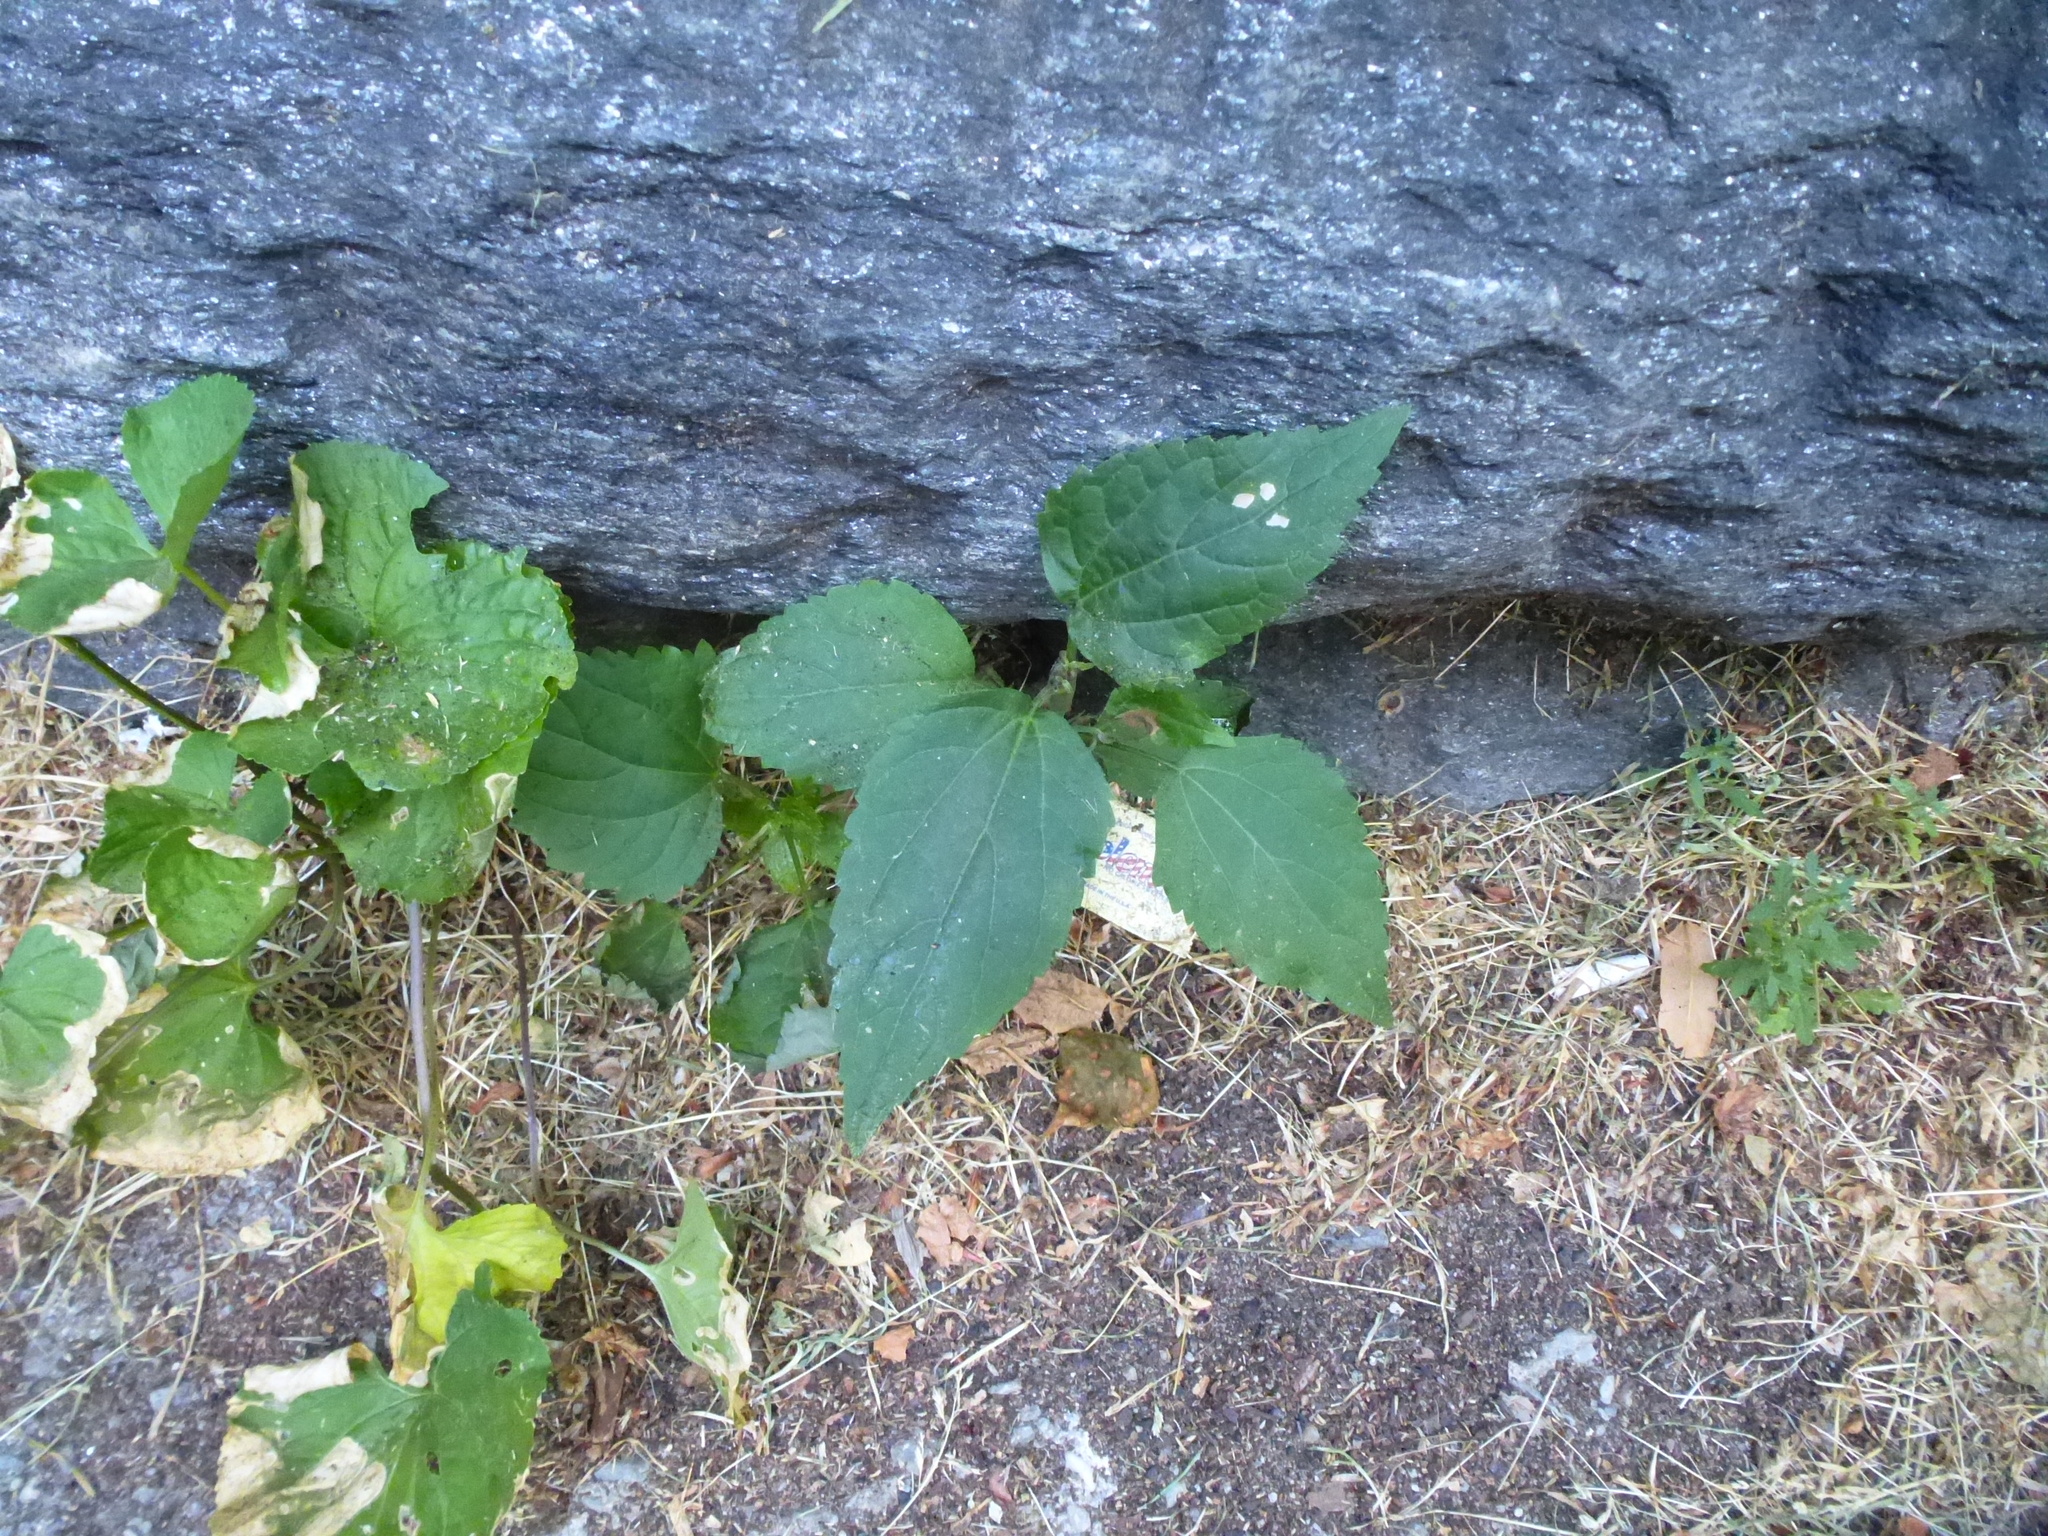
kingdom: Plantae
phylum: Tracheophyta
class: Magnoliopsida
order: Asterales
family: Asteraceae
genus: Ageratina
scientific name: Ageratina altissima
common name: White snakeroot
